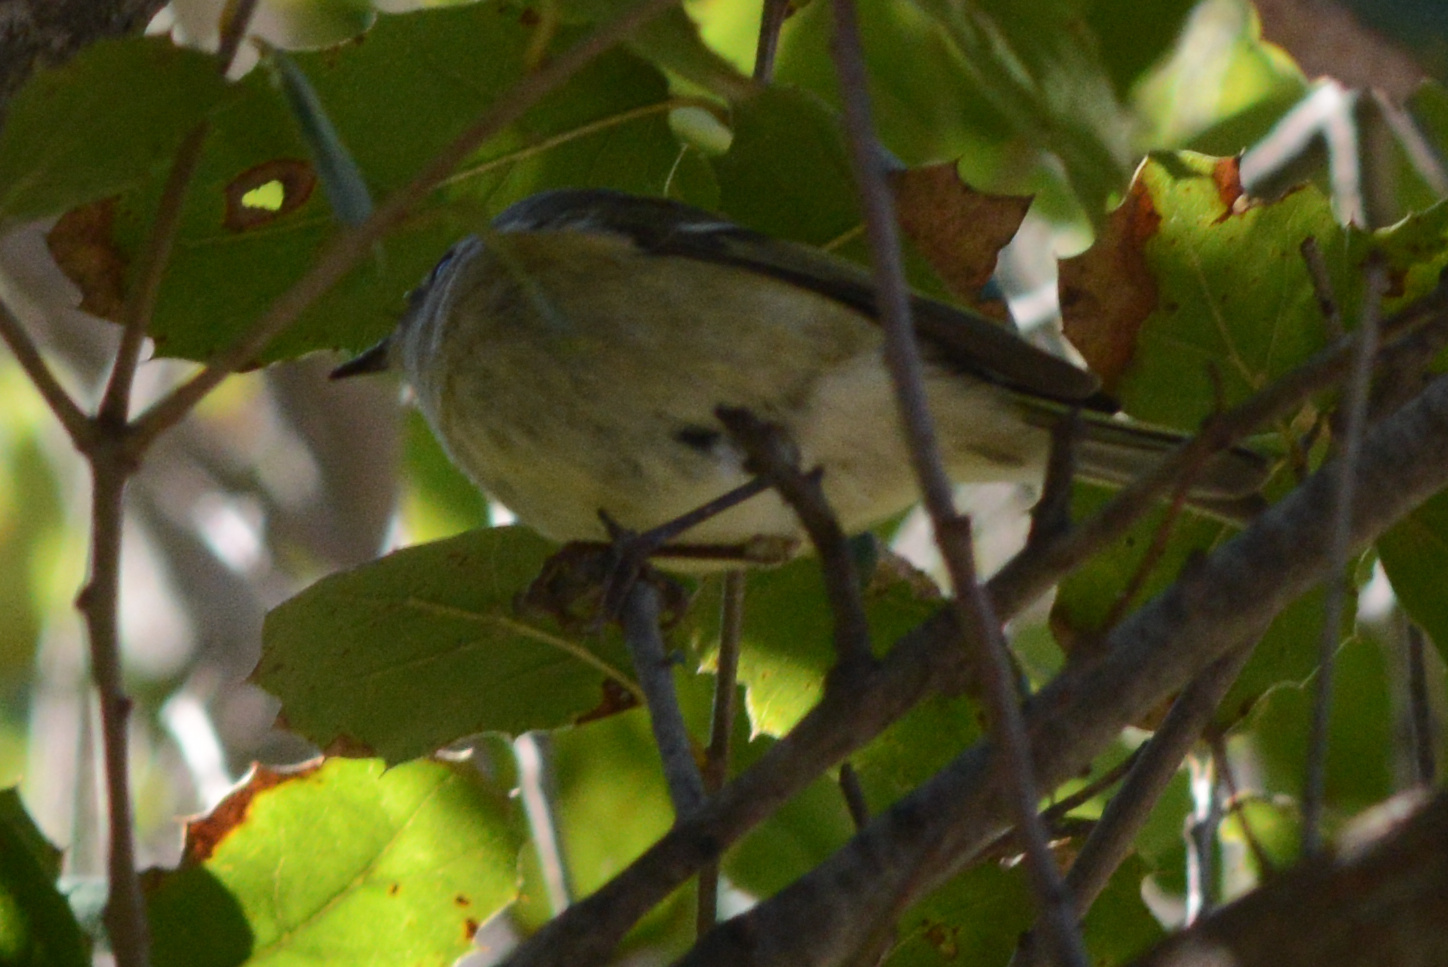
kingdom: Animalia
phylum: Chordata
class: Aves
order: Passeriformes
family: Regulidae
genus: Regulus
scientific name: Regulus calendula
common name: Ruby-crowned kinglet
